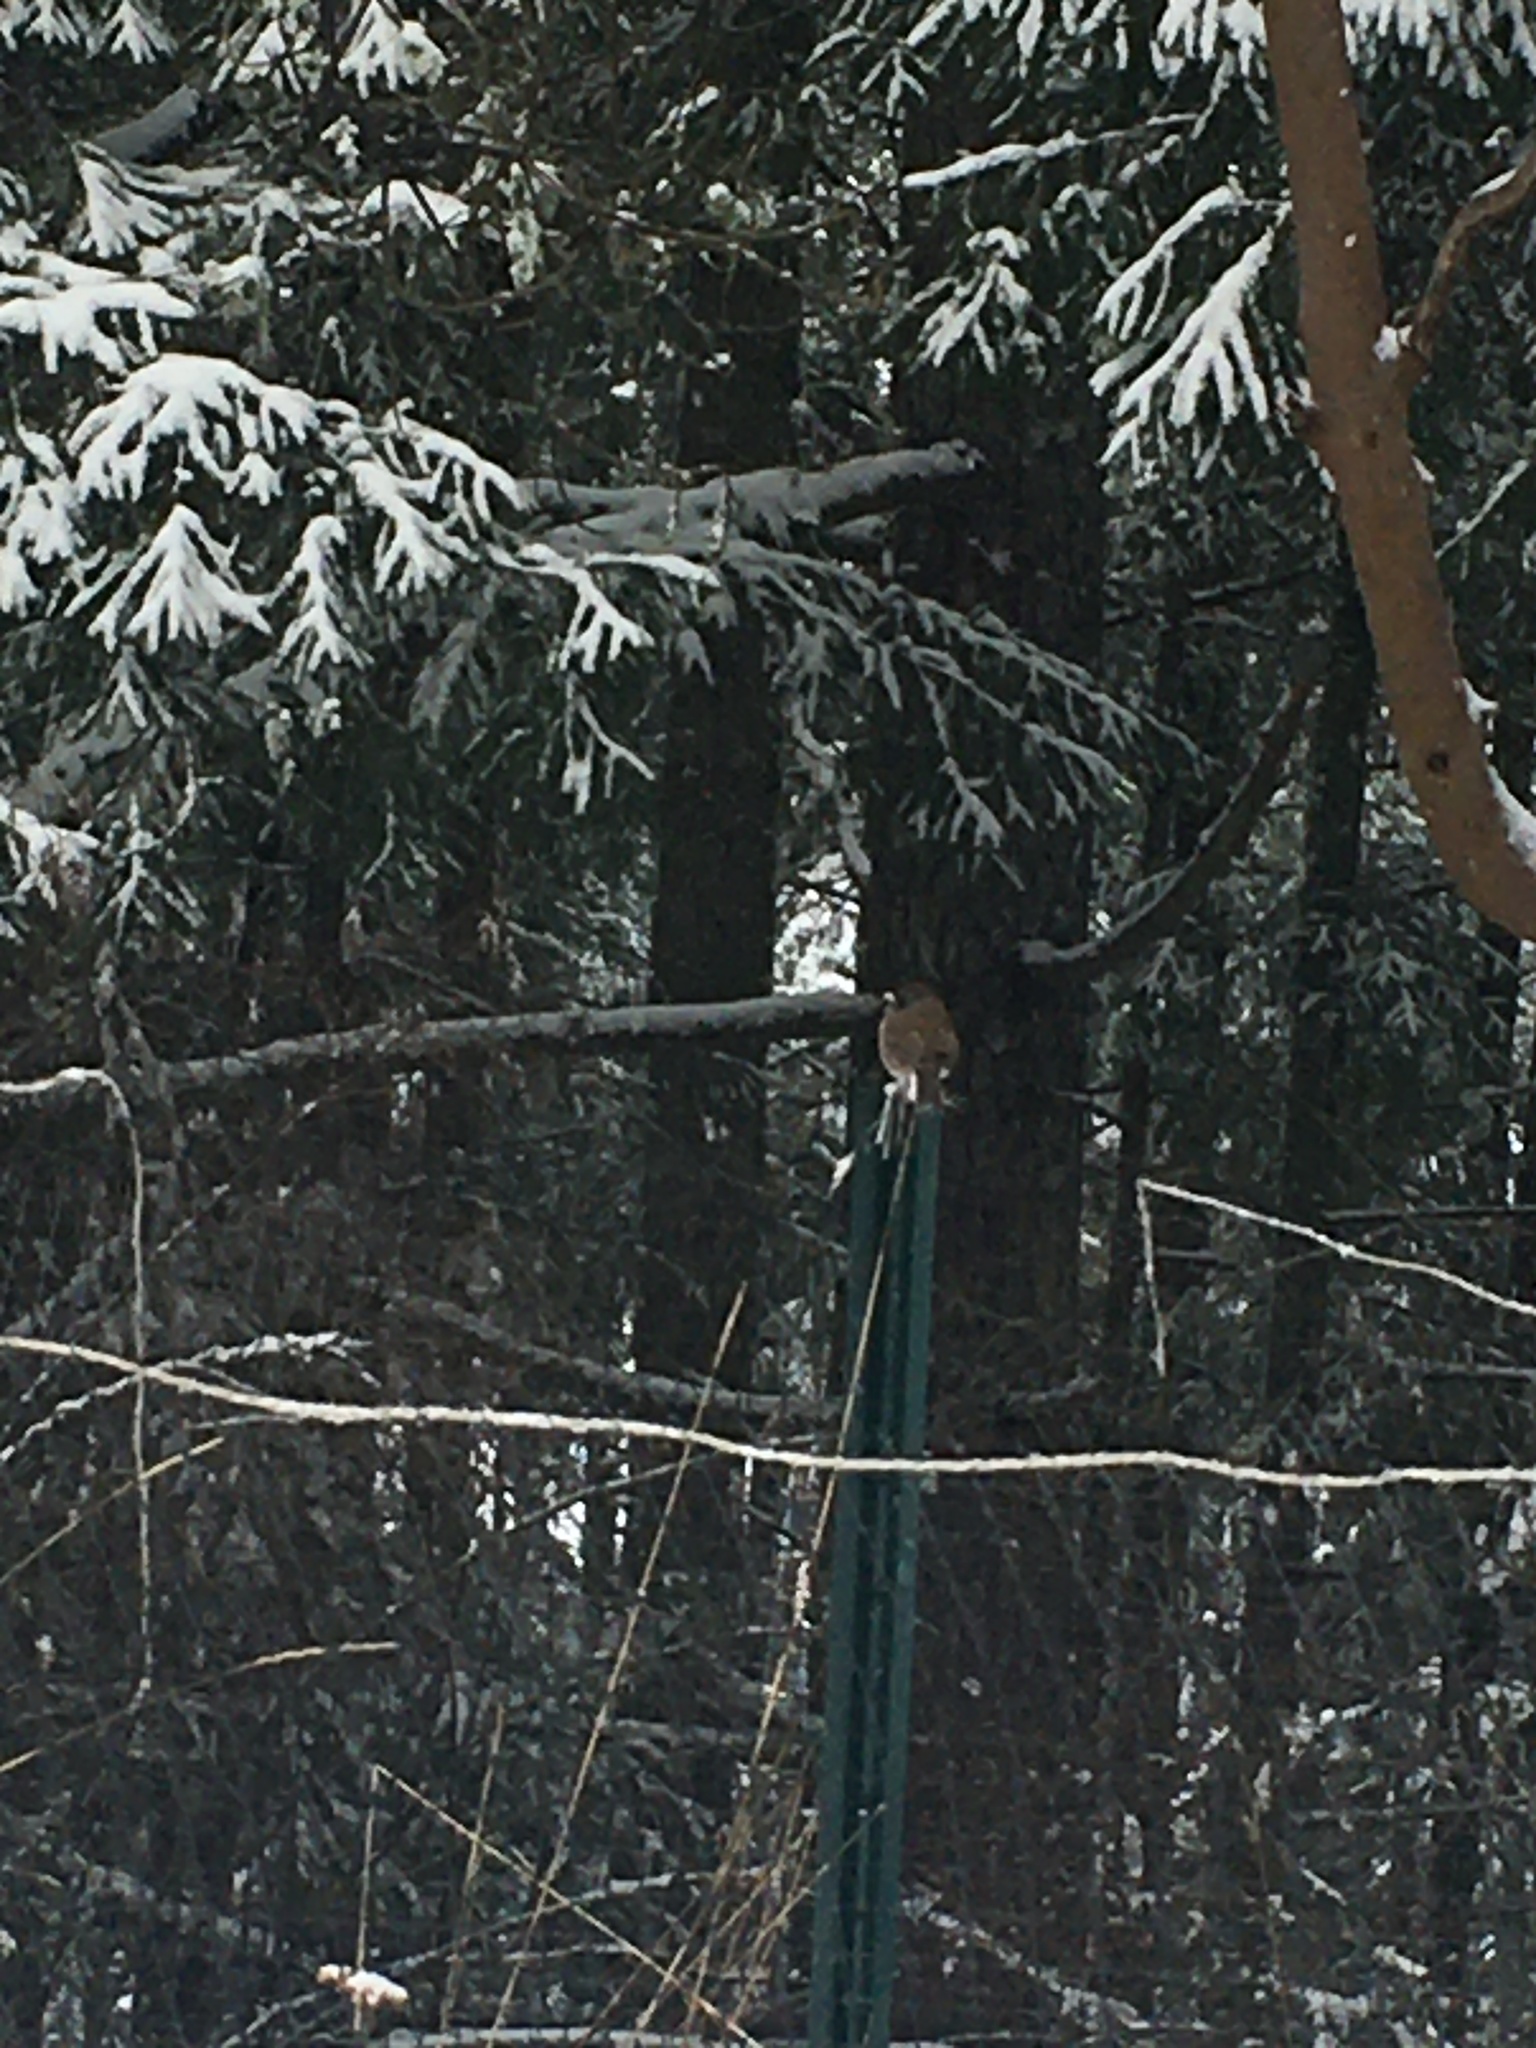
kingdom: Animalia
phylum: Chordata
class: Aves
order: Passeriformes
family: Passerellidae
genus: Junco
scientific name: Junco hyemalis
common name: Dark-eyed junco
